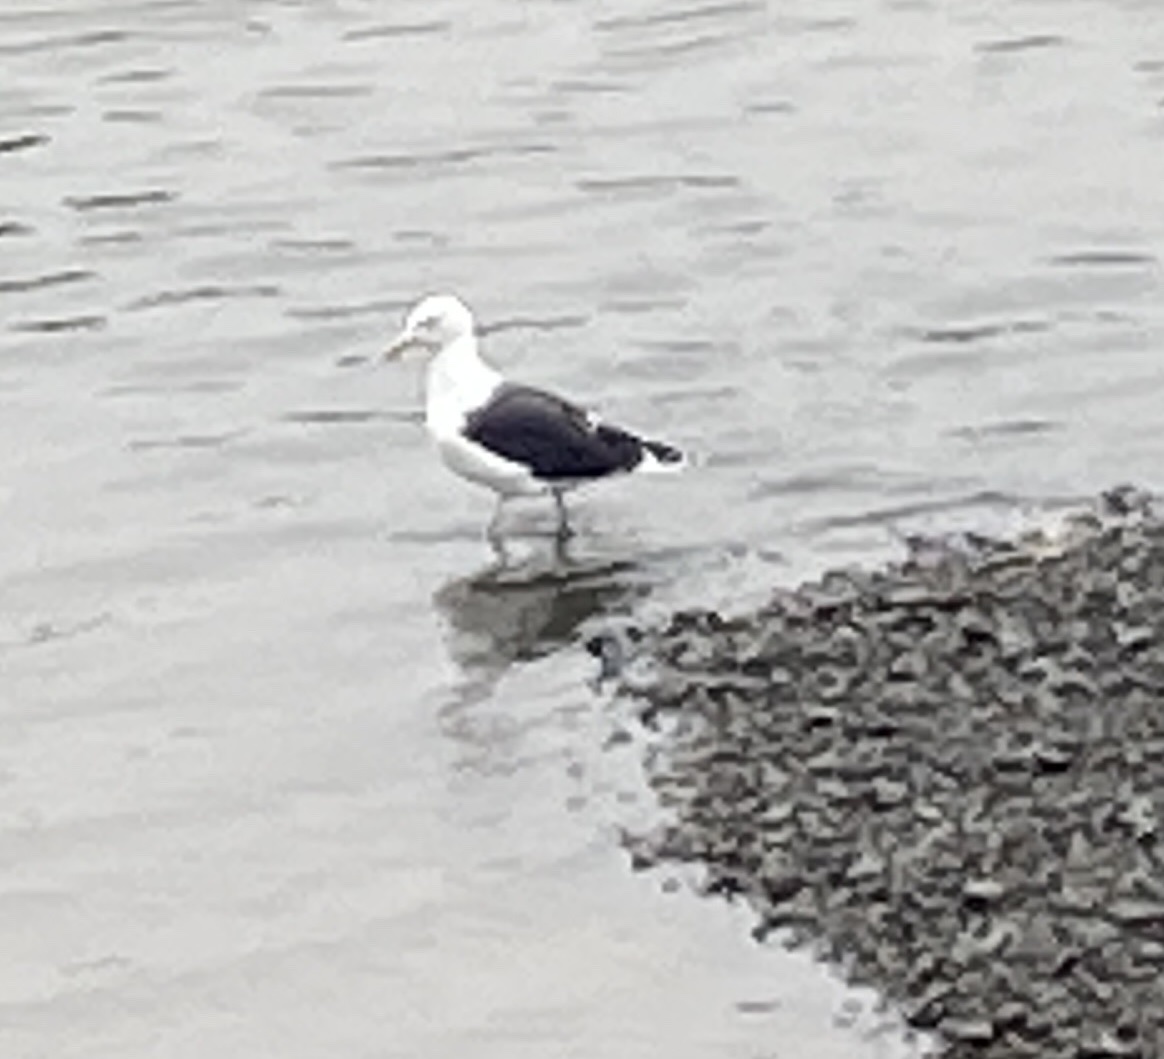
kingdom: Animalia
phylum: Chordata
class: Aves
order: Charadriiformes
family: Laridae
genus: Larus
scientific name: Larus marinus
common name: Great black-backed gull
